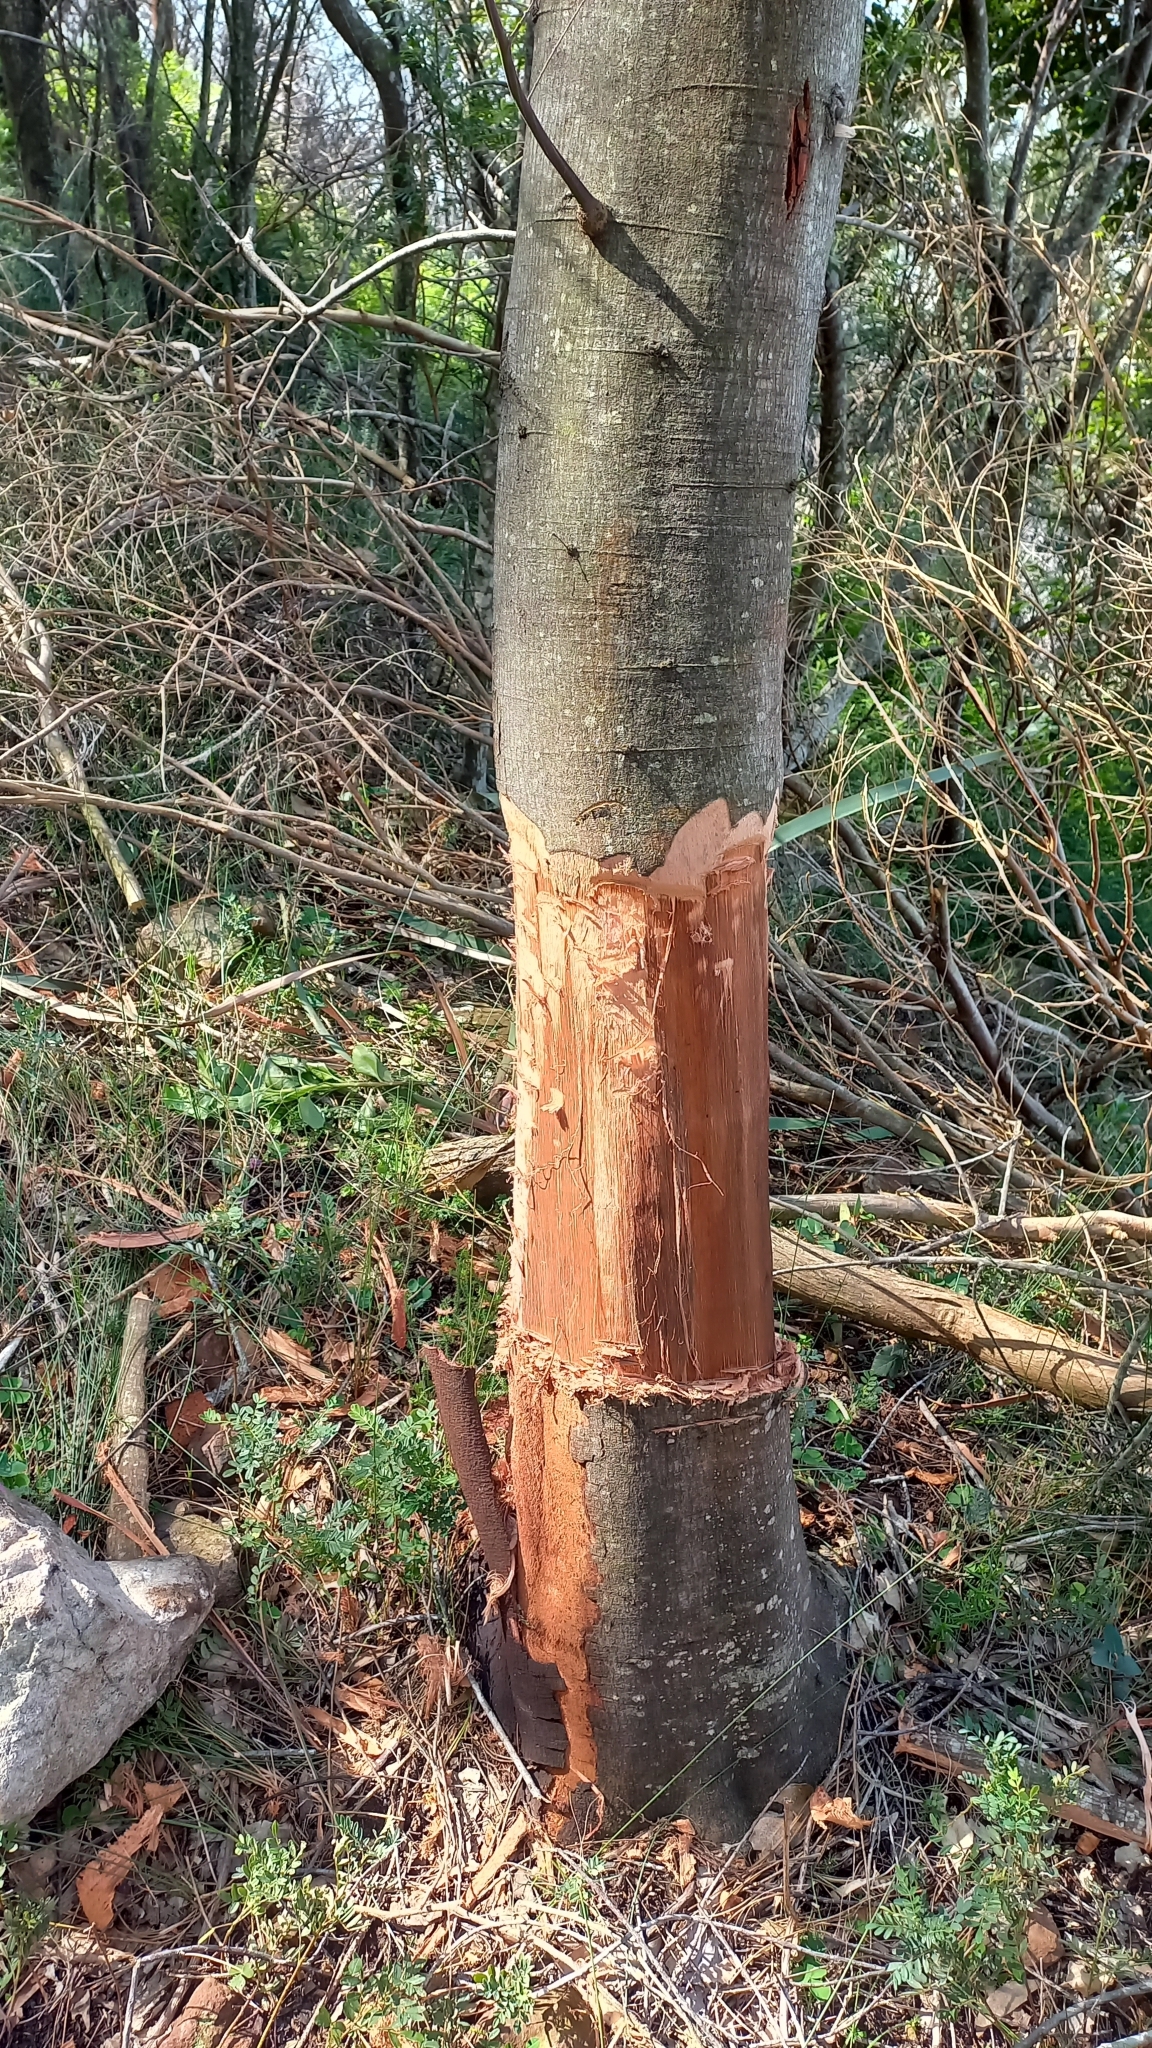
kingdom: Plantae
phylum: Tracheophyta
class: Magnoliopsida
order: Fabales
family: Fabaceae
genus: Acacia
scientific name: Acacia mearnsii
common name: Black wattle
